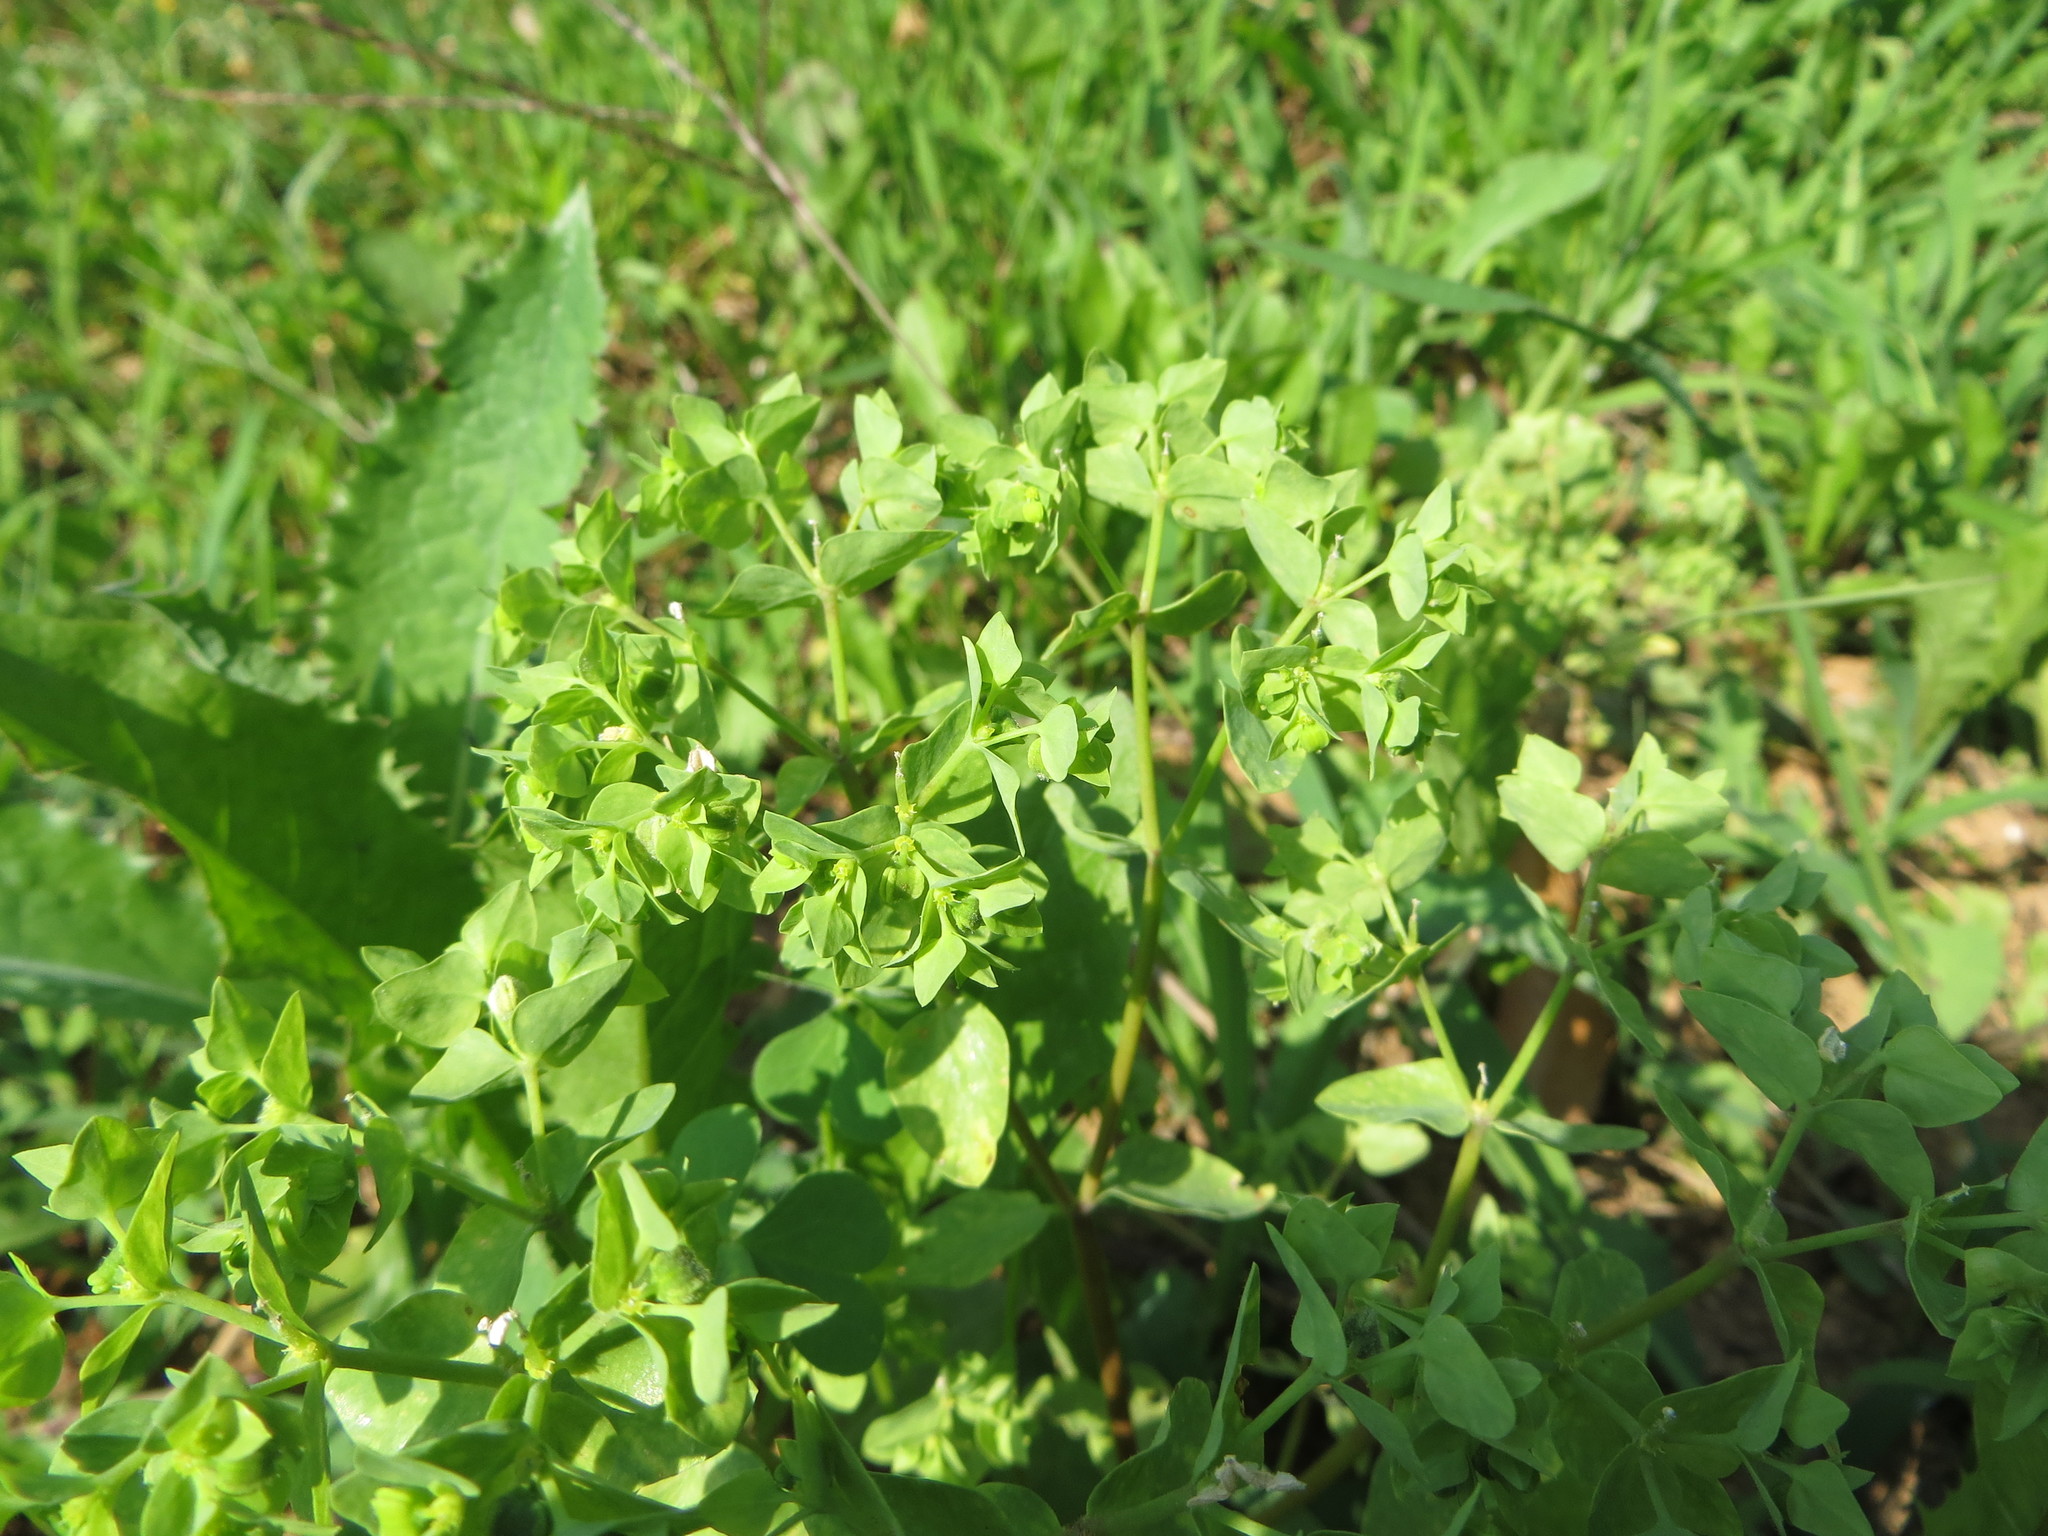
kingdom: Plantae
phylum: Tracheophyta
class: Magnoliopsida
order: Malpighiales
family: Euphorbiaceae
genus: Euphorbia
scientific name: Euphorbia peplus
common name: Petty spurge
